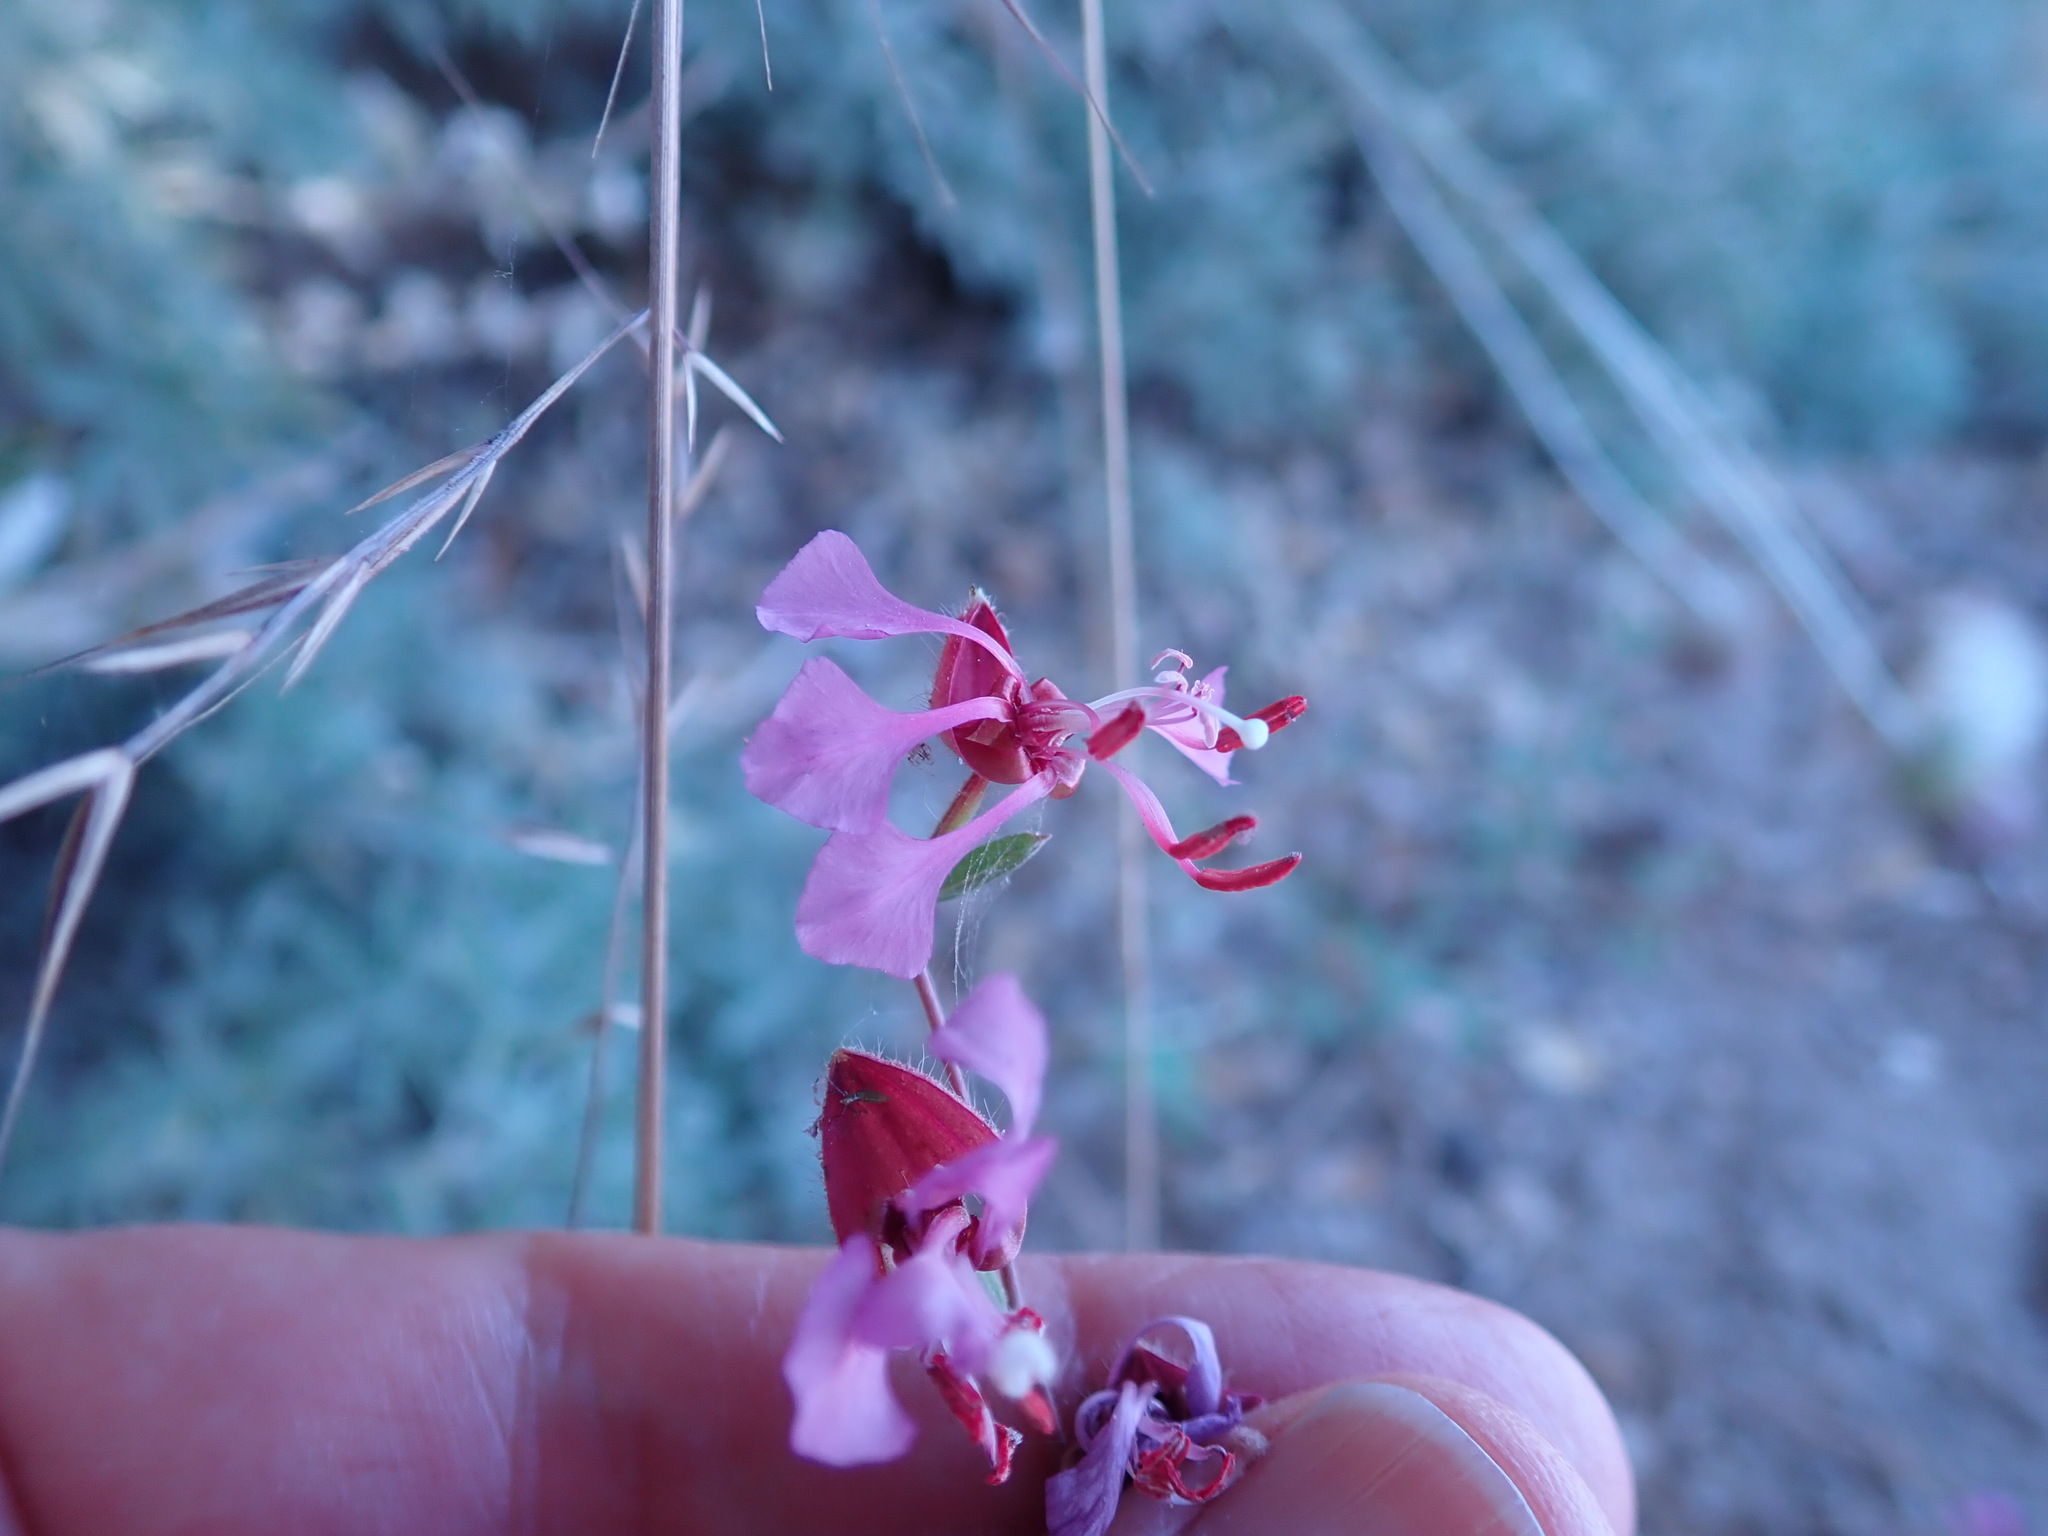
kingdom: Plantae
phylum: Tracheophyta
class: Magnoliopsida
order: Myrtales
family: Onagraceae
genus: Clarkia
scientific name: Clarkia unguiculata
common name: Clarkia
